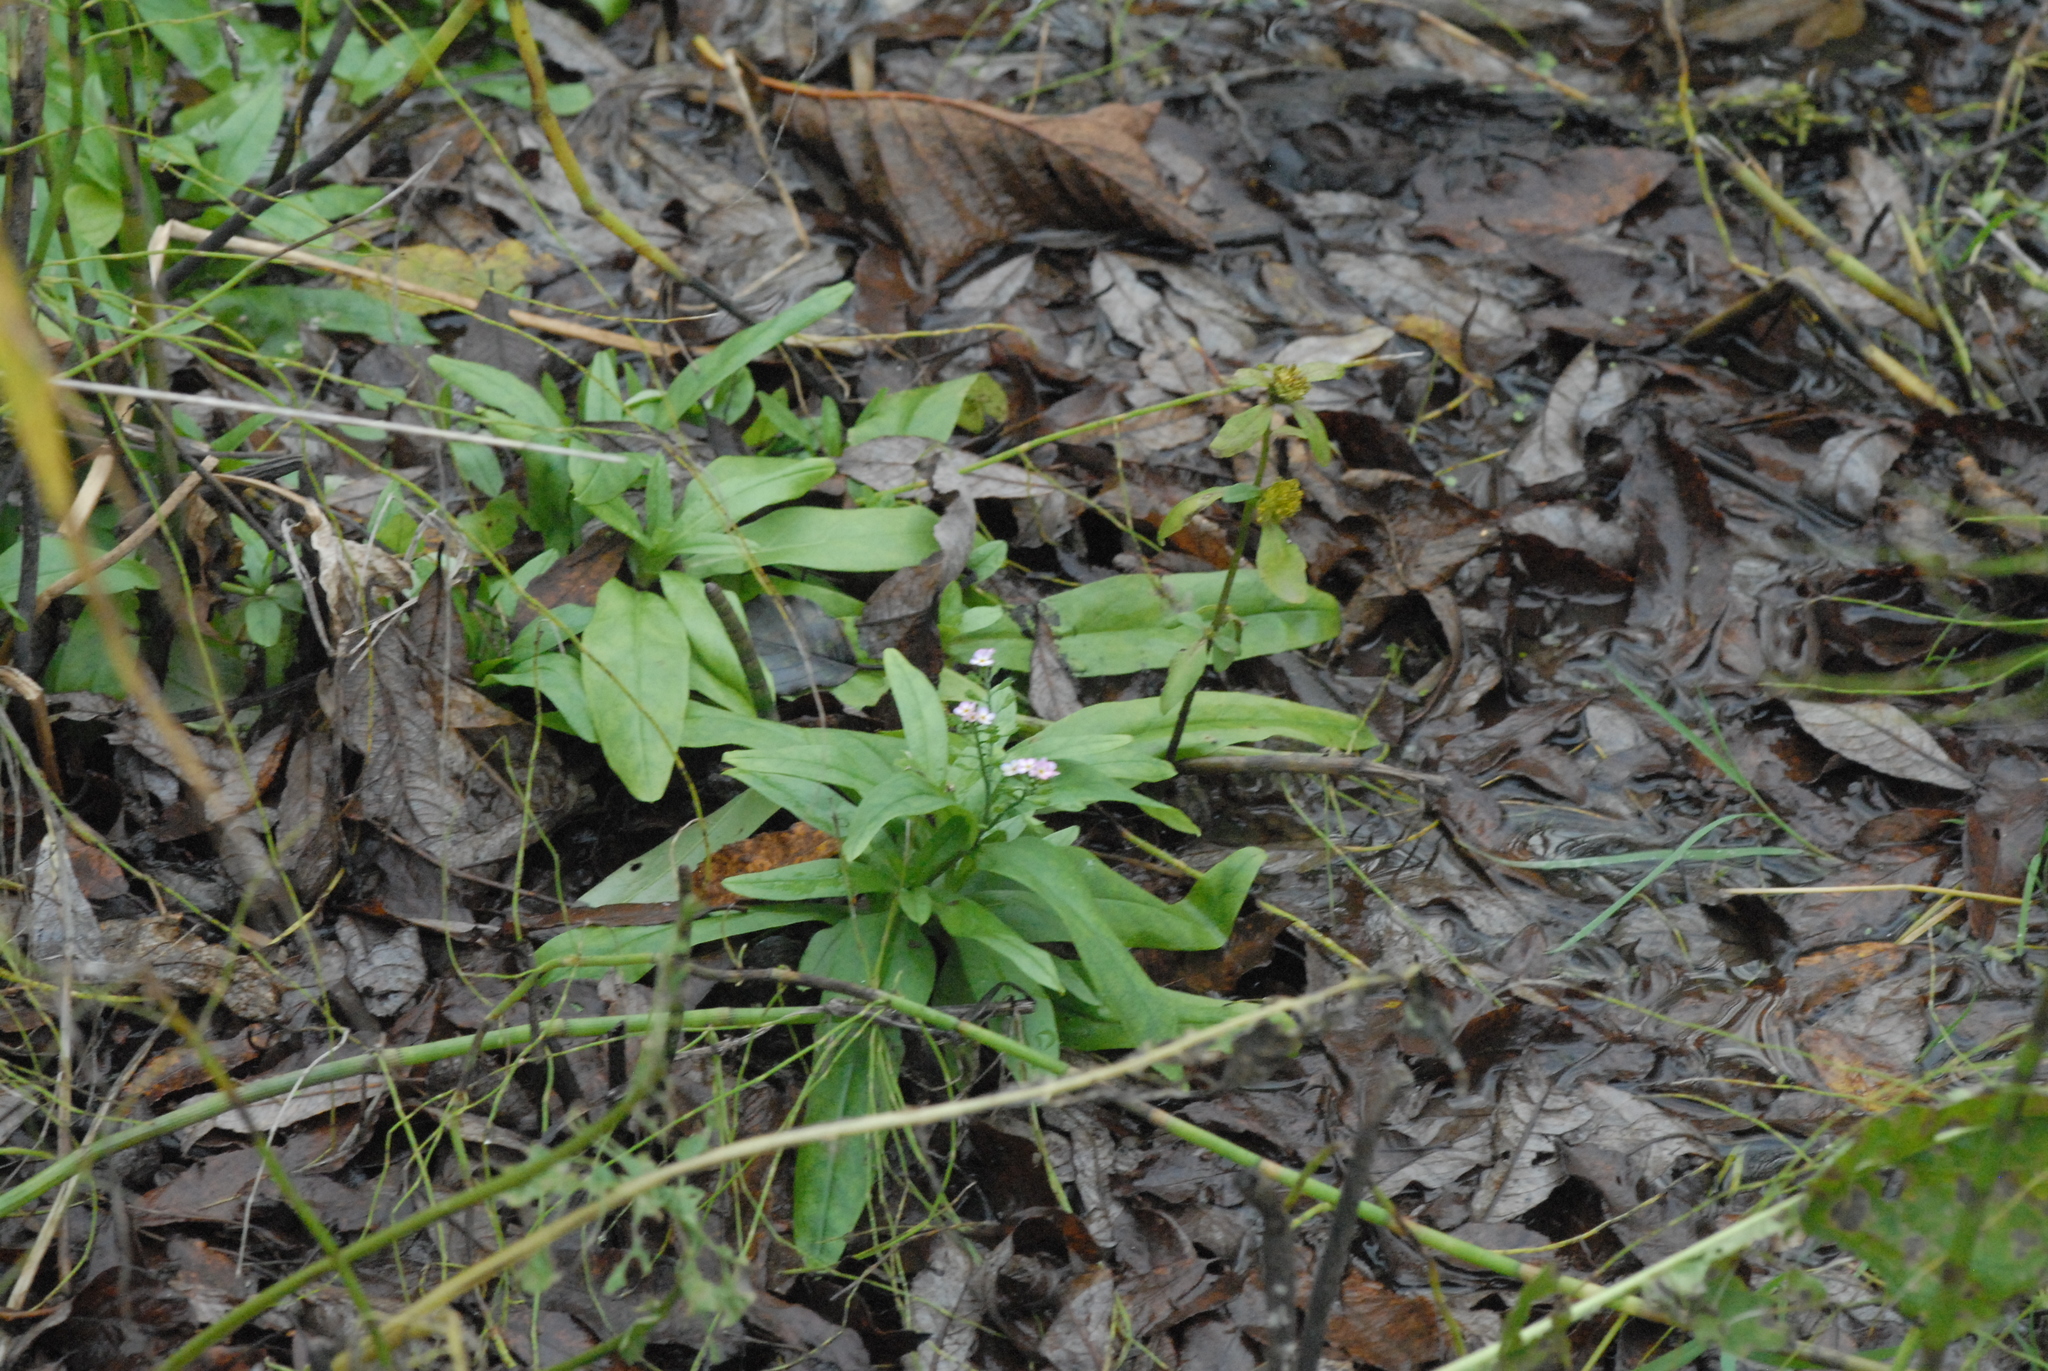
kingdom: Plantae
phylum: Tracheophyta
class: Magnoliopsida
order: Boraginales
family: Boraginaceae
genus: Myosotis
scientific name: Myosotis scorpioides
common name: Water forget-me-not
